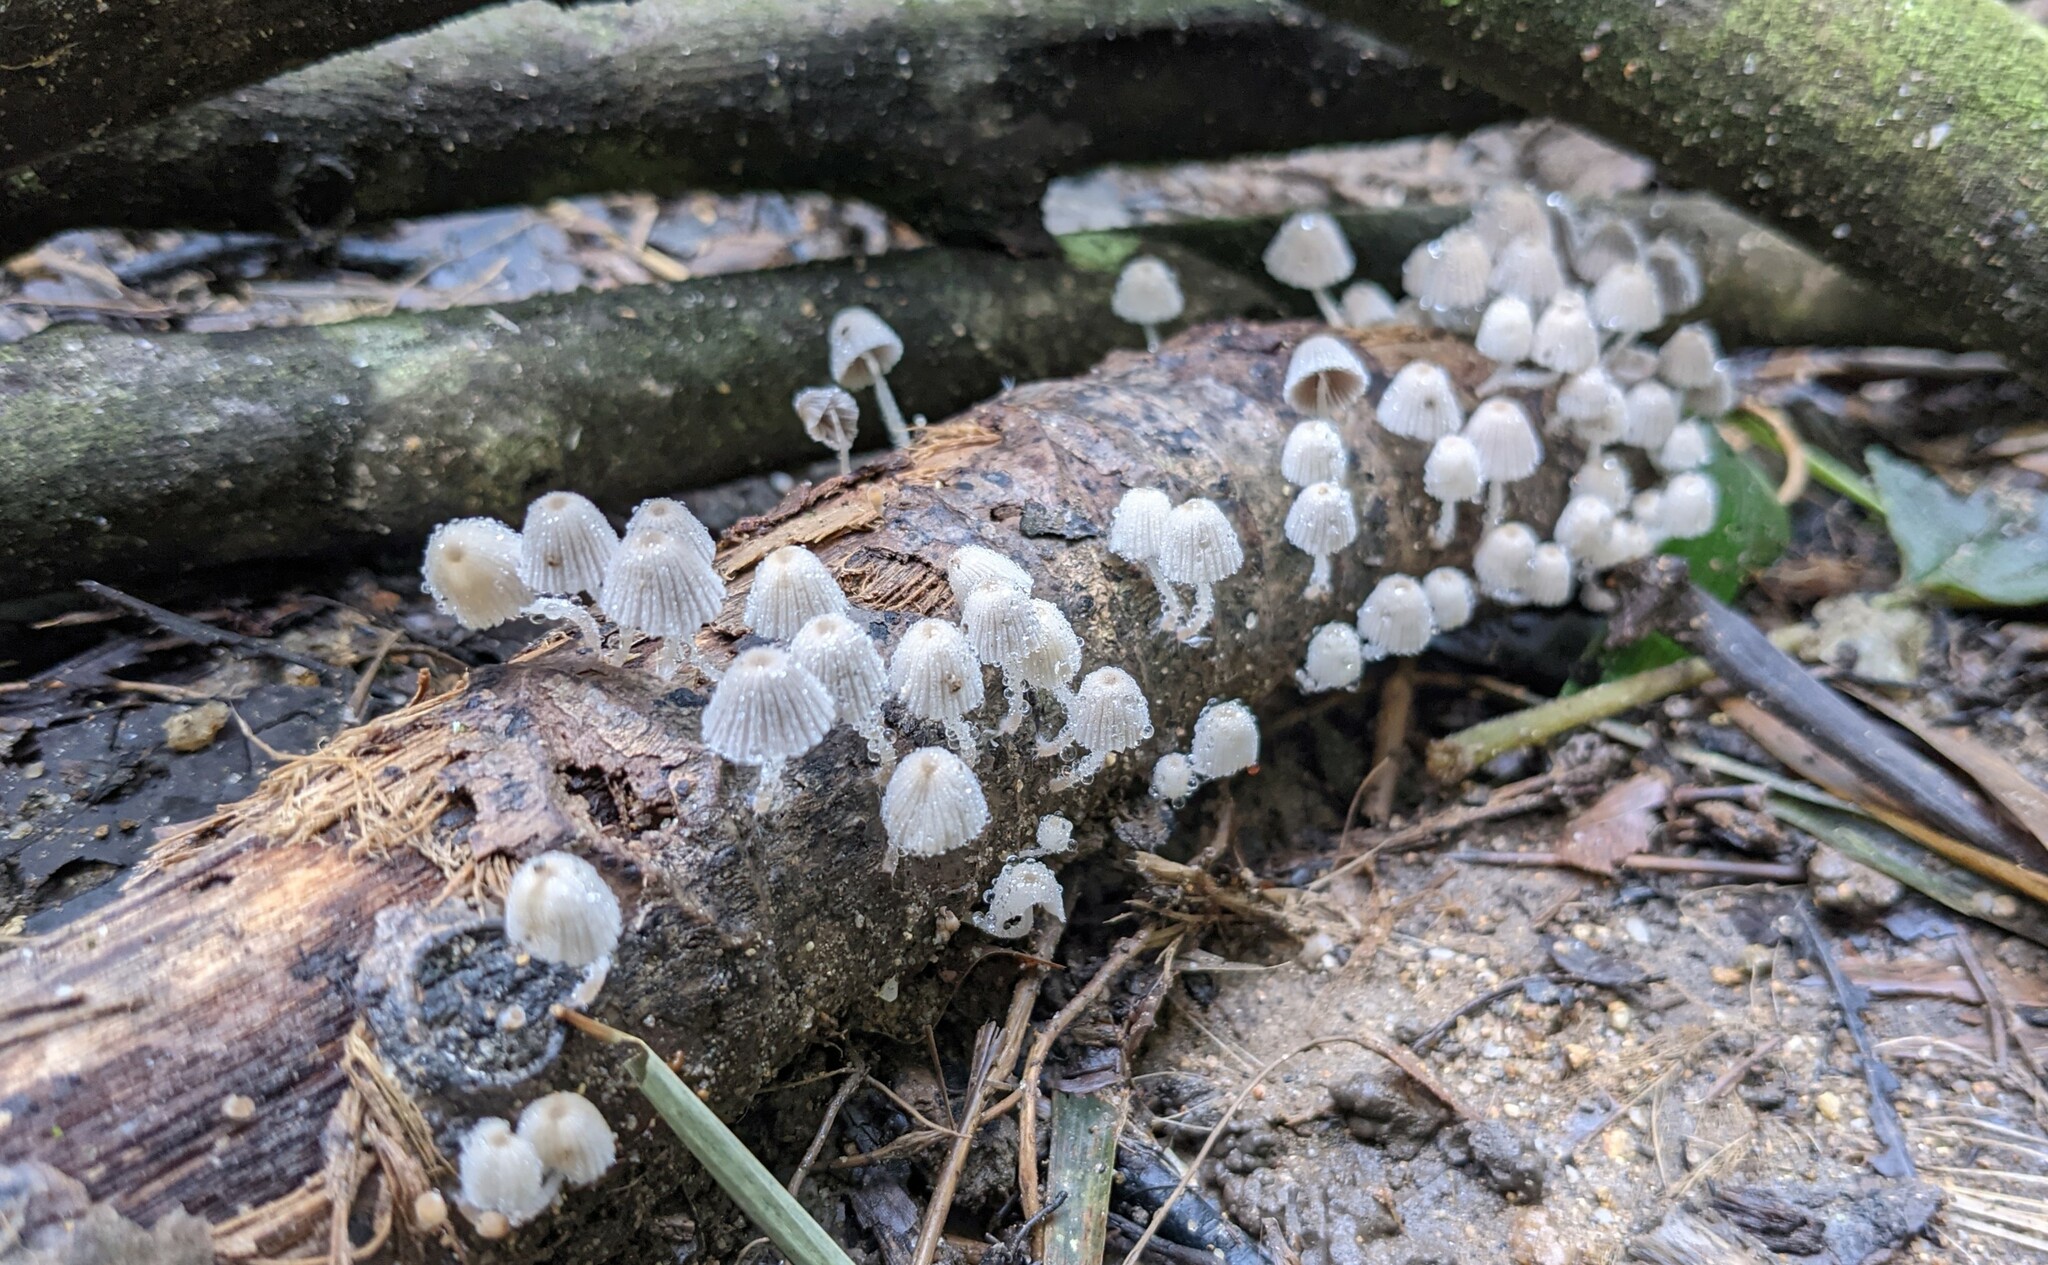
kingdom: Fungi
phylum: Basidiomycota
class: Agaricomycetes
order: Agaricales
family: Psathyrellaceae
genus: Coprinellus
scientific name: Coprinellus disseminatus
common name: Fairies' bonnets
